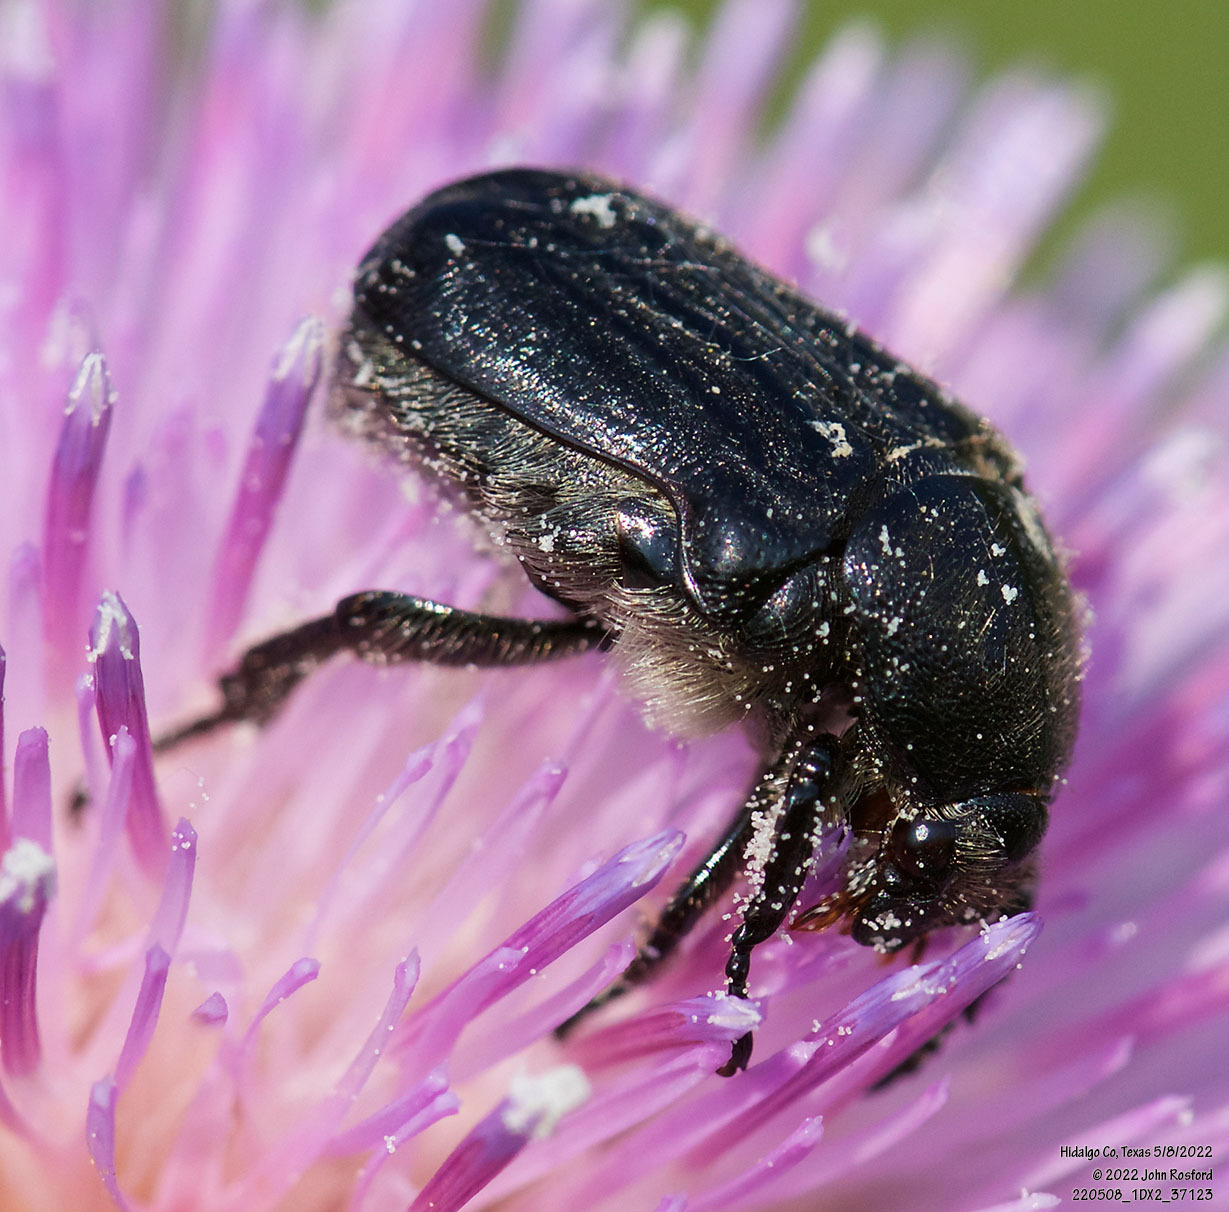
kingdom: Animalia
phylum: Arthropoda
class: Insecta
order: Coleoptera
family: Scarabaeidae
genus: Euphoria
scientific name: Euphoria kernii
